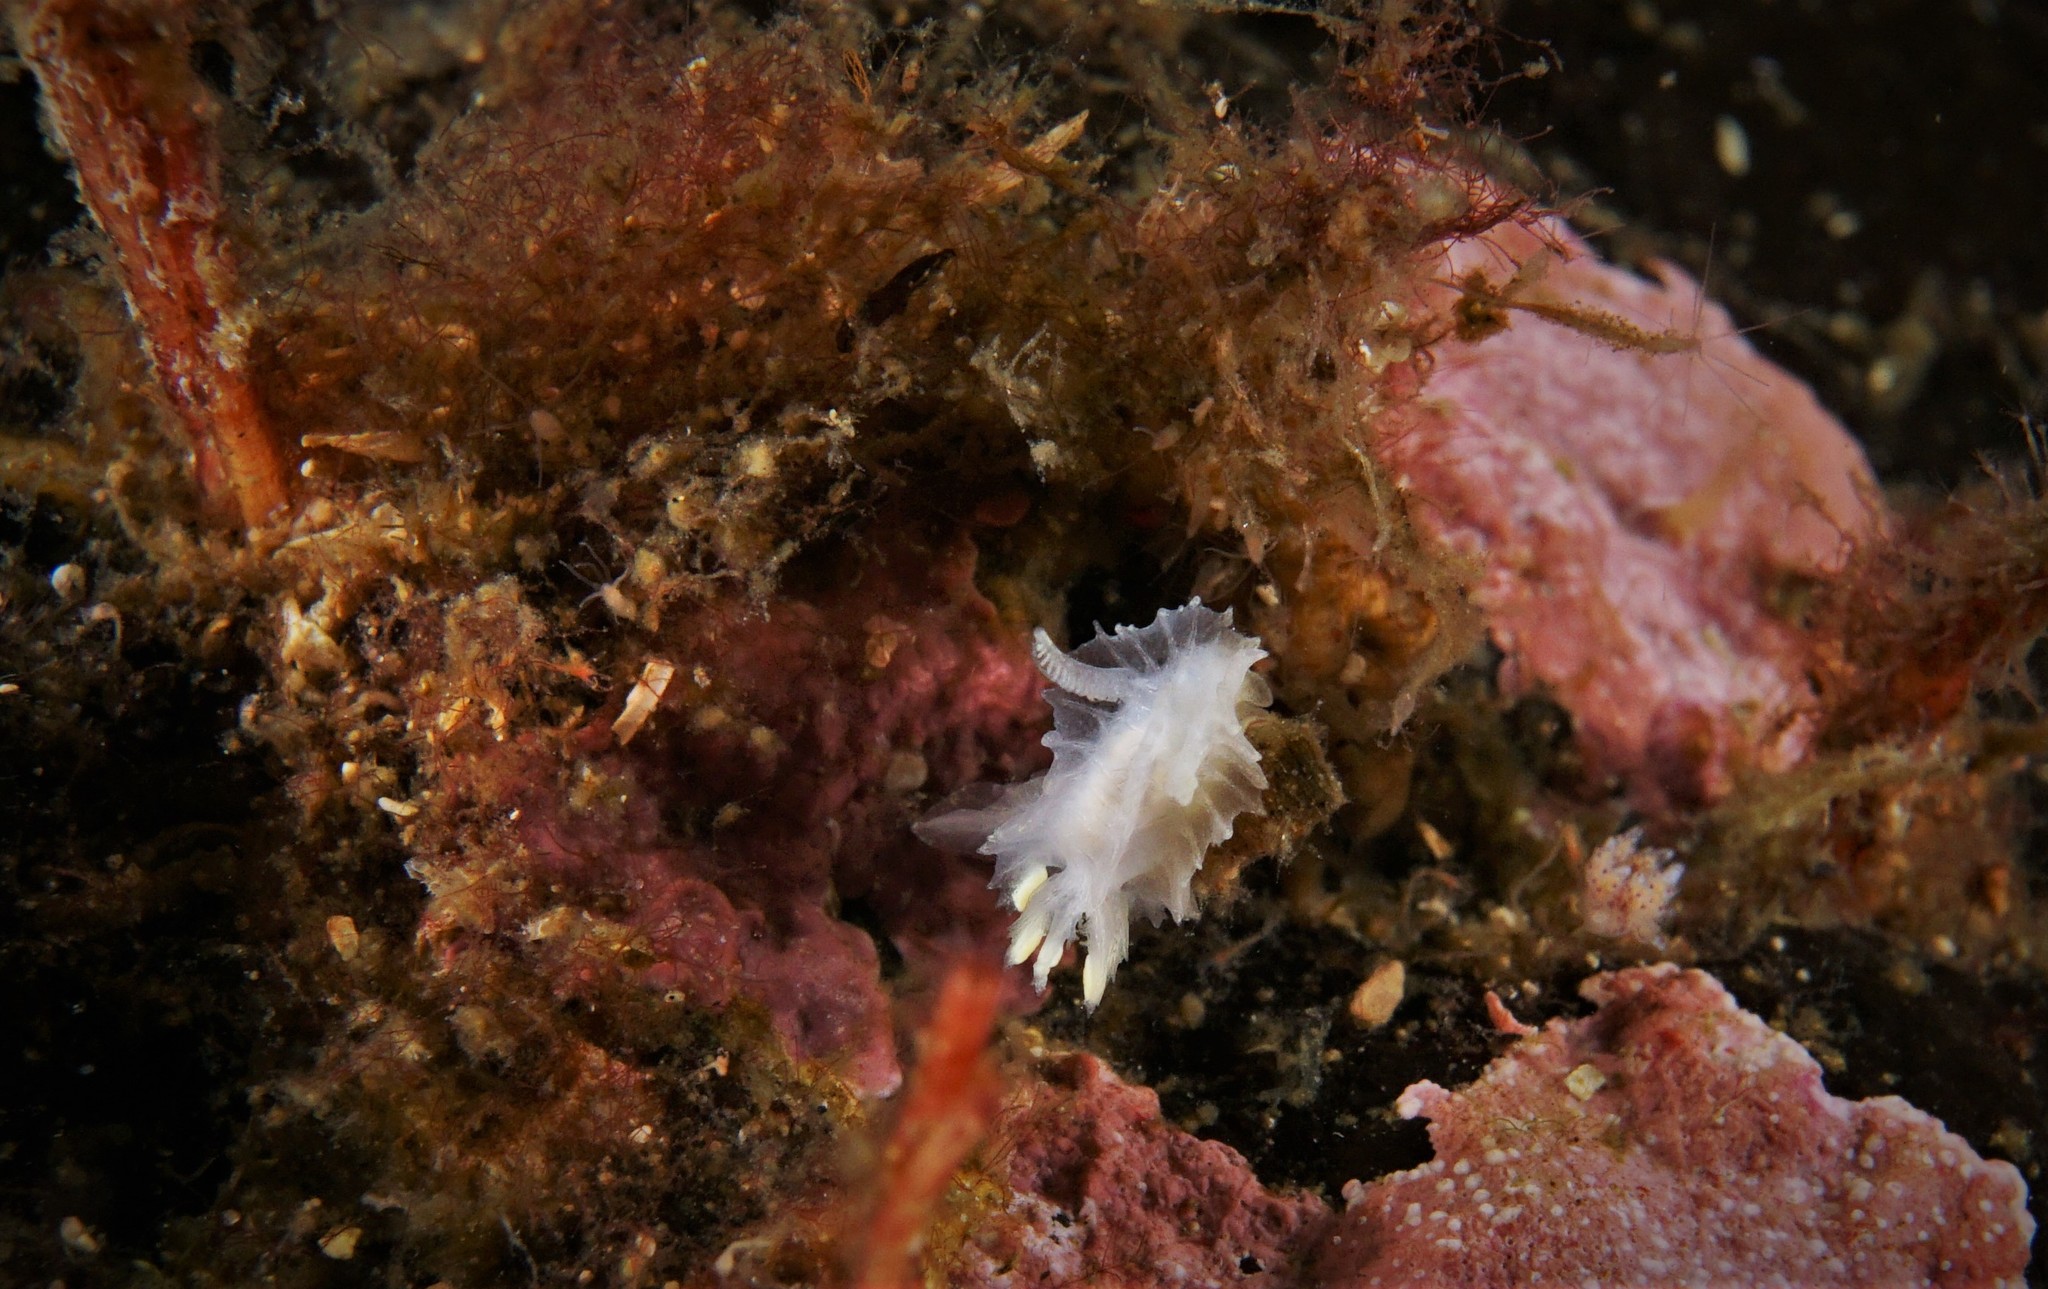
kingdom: Animalia
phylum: Mollusca
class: Gastropoda
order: Nudibranchia
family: Goniodorididae
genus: Lophodoris
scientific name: Lophodoris danielsseni
